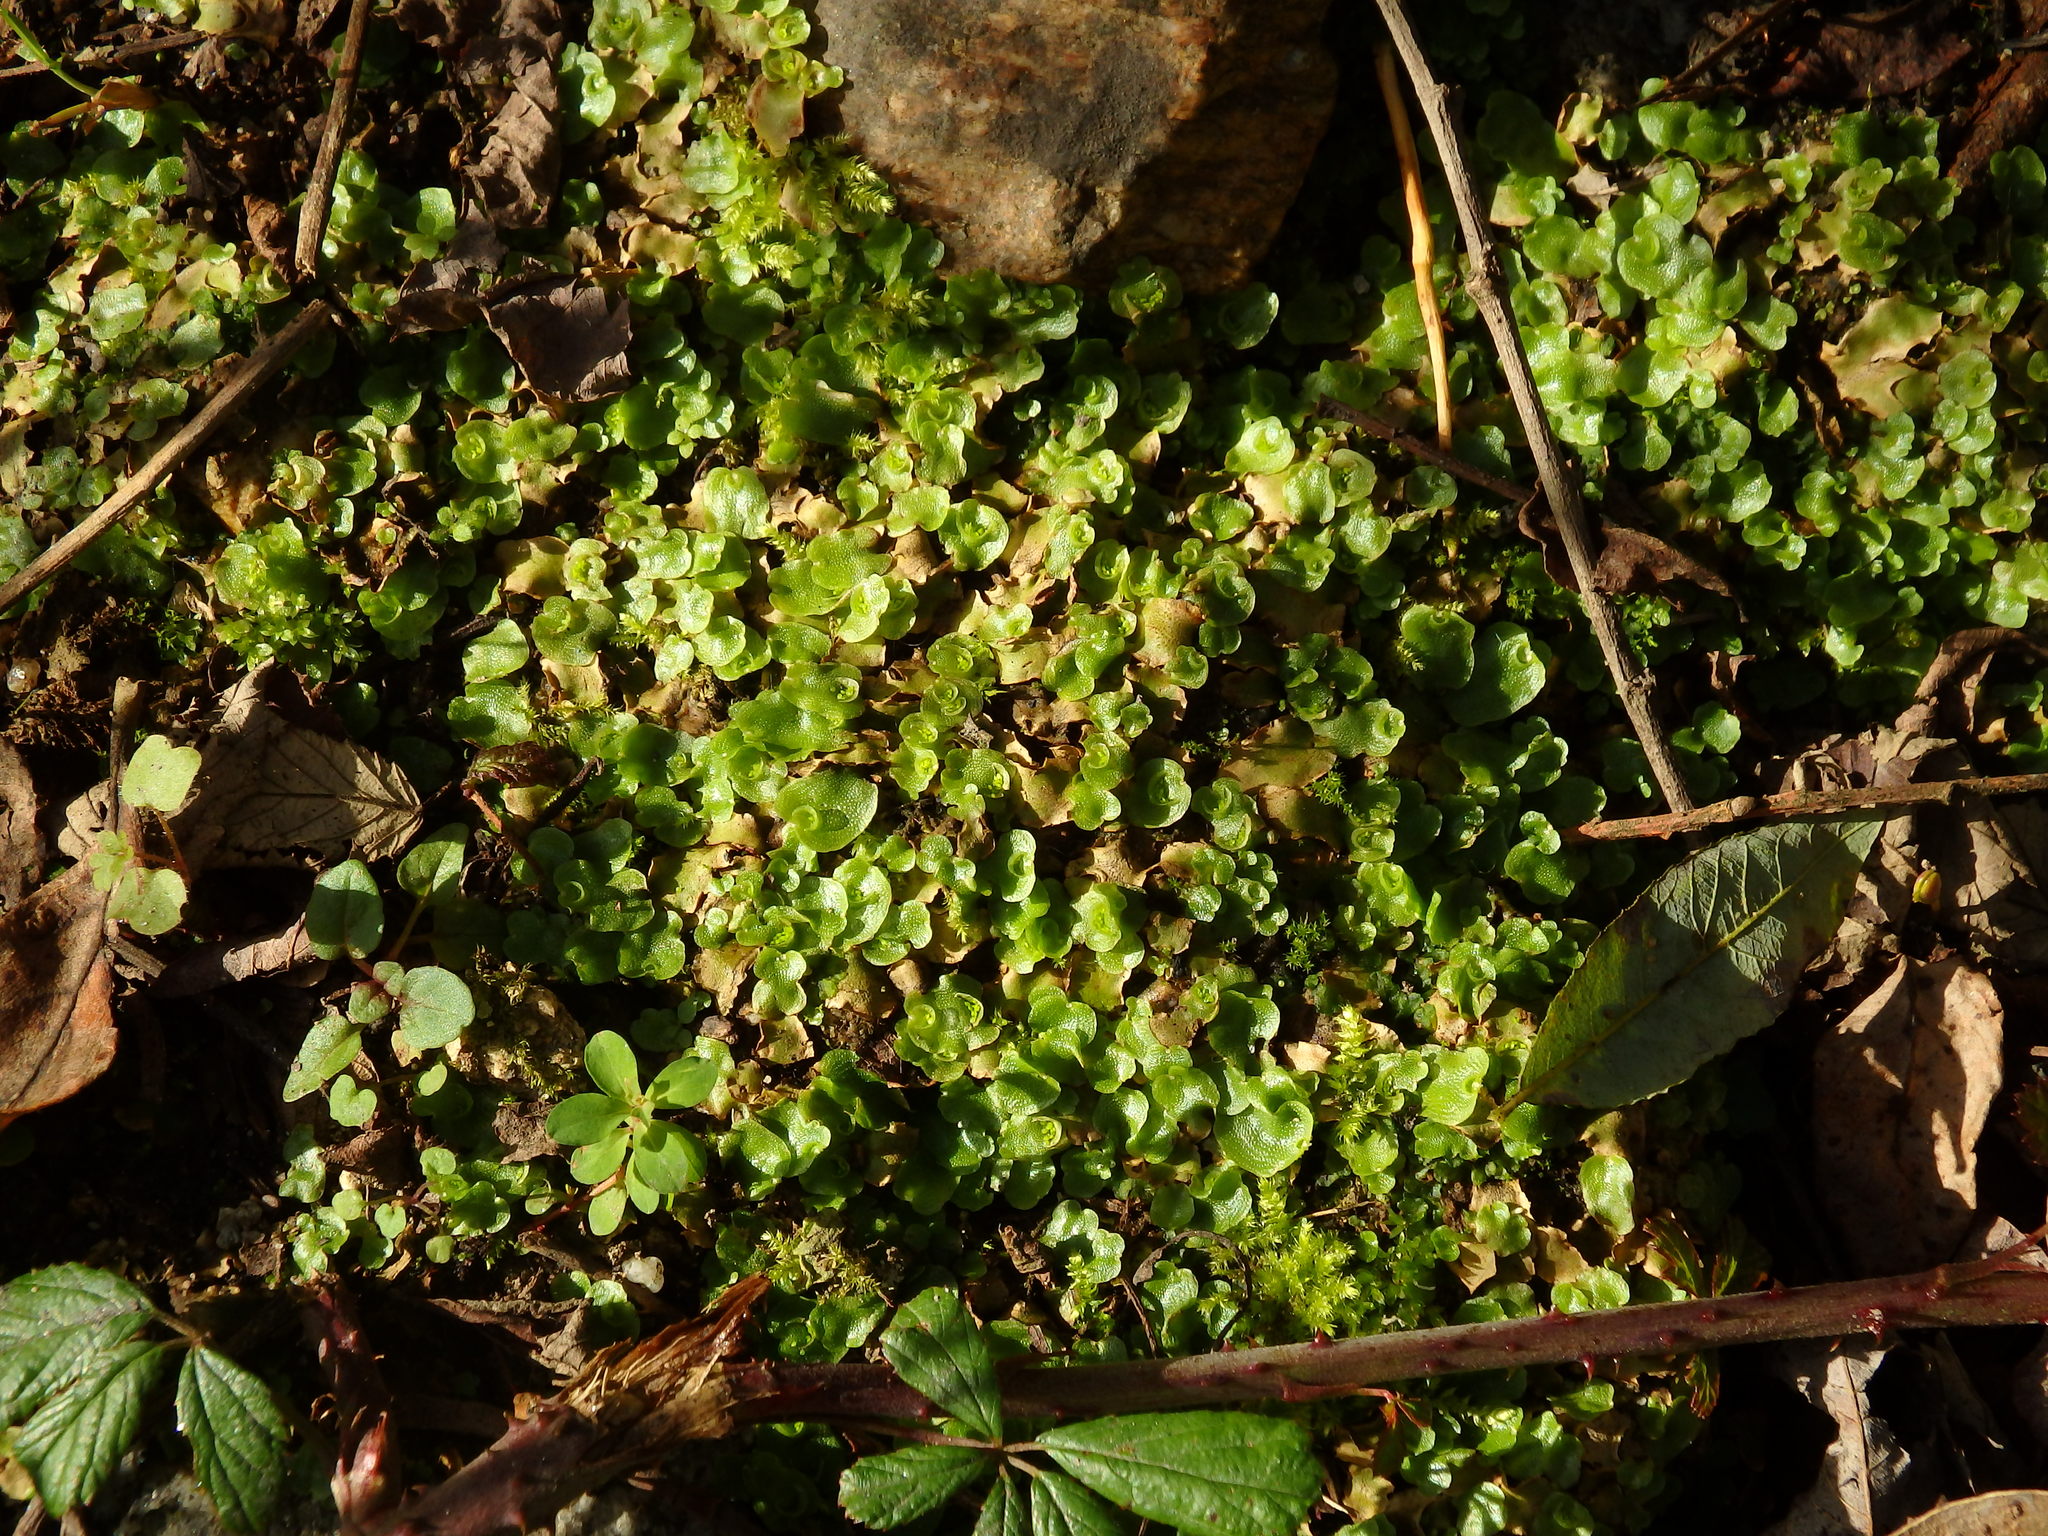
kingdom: Plantae
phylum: Marchantiophyta
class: Marchantiopsida
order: Lunulariales
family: Lunulariaceae
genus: Lunularia
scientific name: Lunularia cruciata
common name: Crescent-cup liverwort
